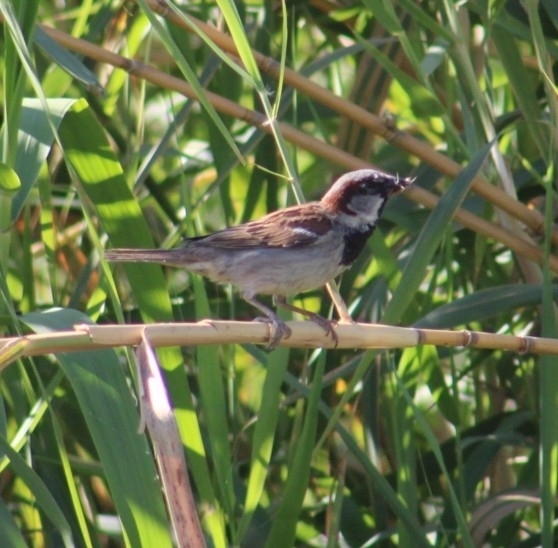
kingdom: Animalia
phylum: Chordata
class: Aves
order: Passeriformes
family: Passeridae
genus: Passer
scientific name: Passer domesticus
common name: House sparrow
